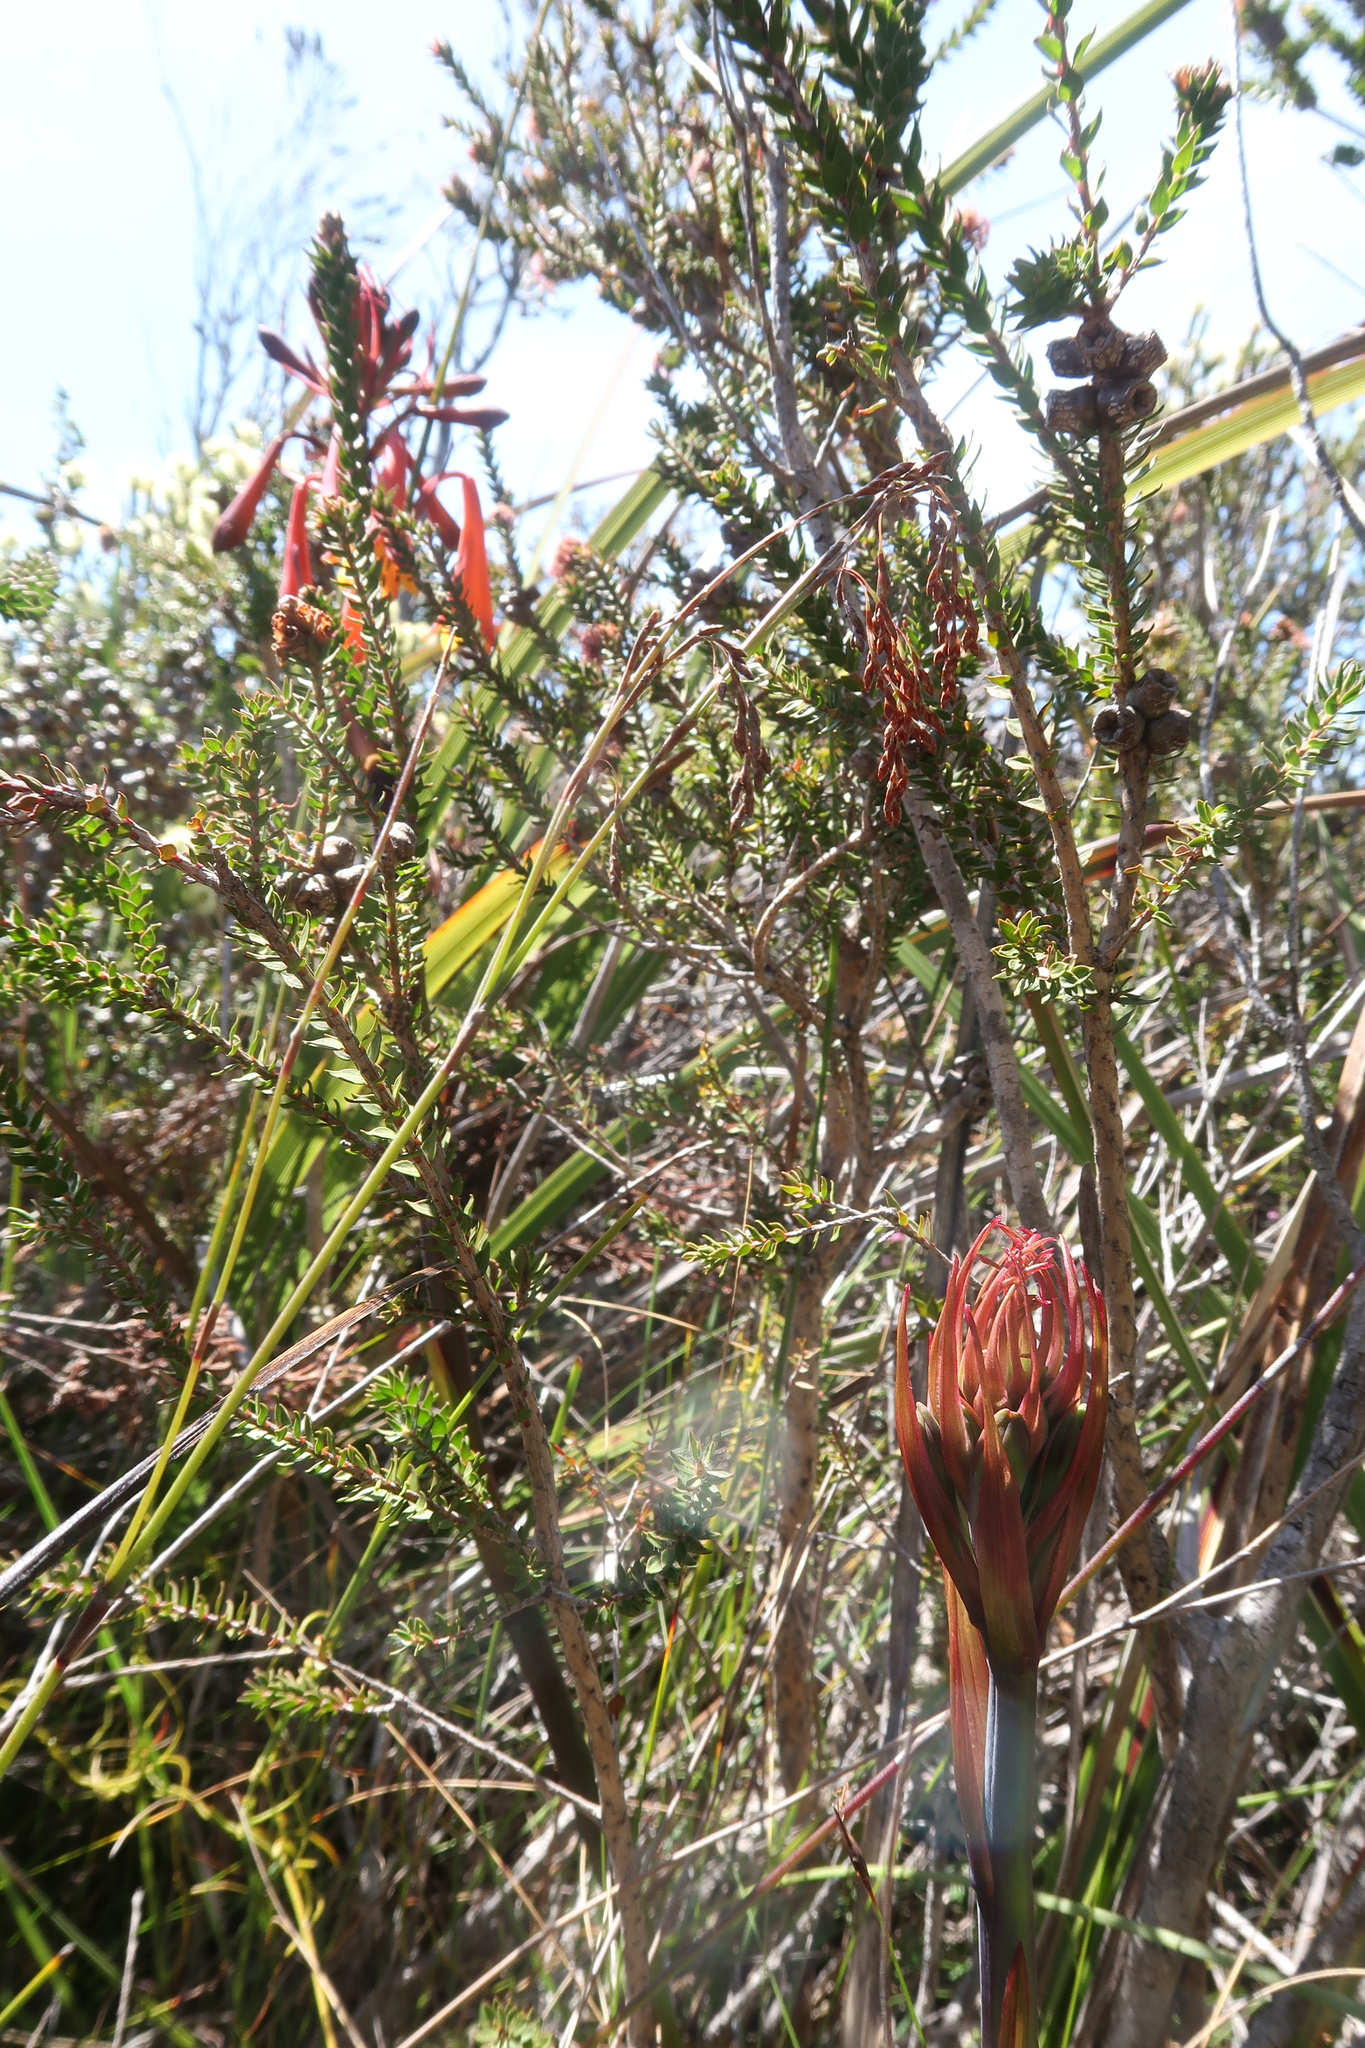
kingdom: Plantae
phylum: Tracheophyta
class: Liliopsida
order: Asparagales
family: Blandfordiaceae
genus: Blandfordia
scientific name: Blandfordia punicea
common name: Tasmanian christmas-bell
